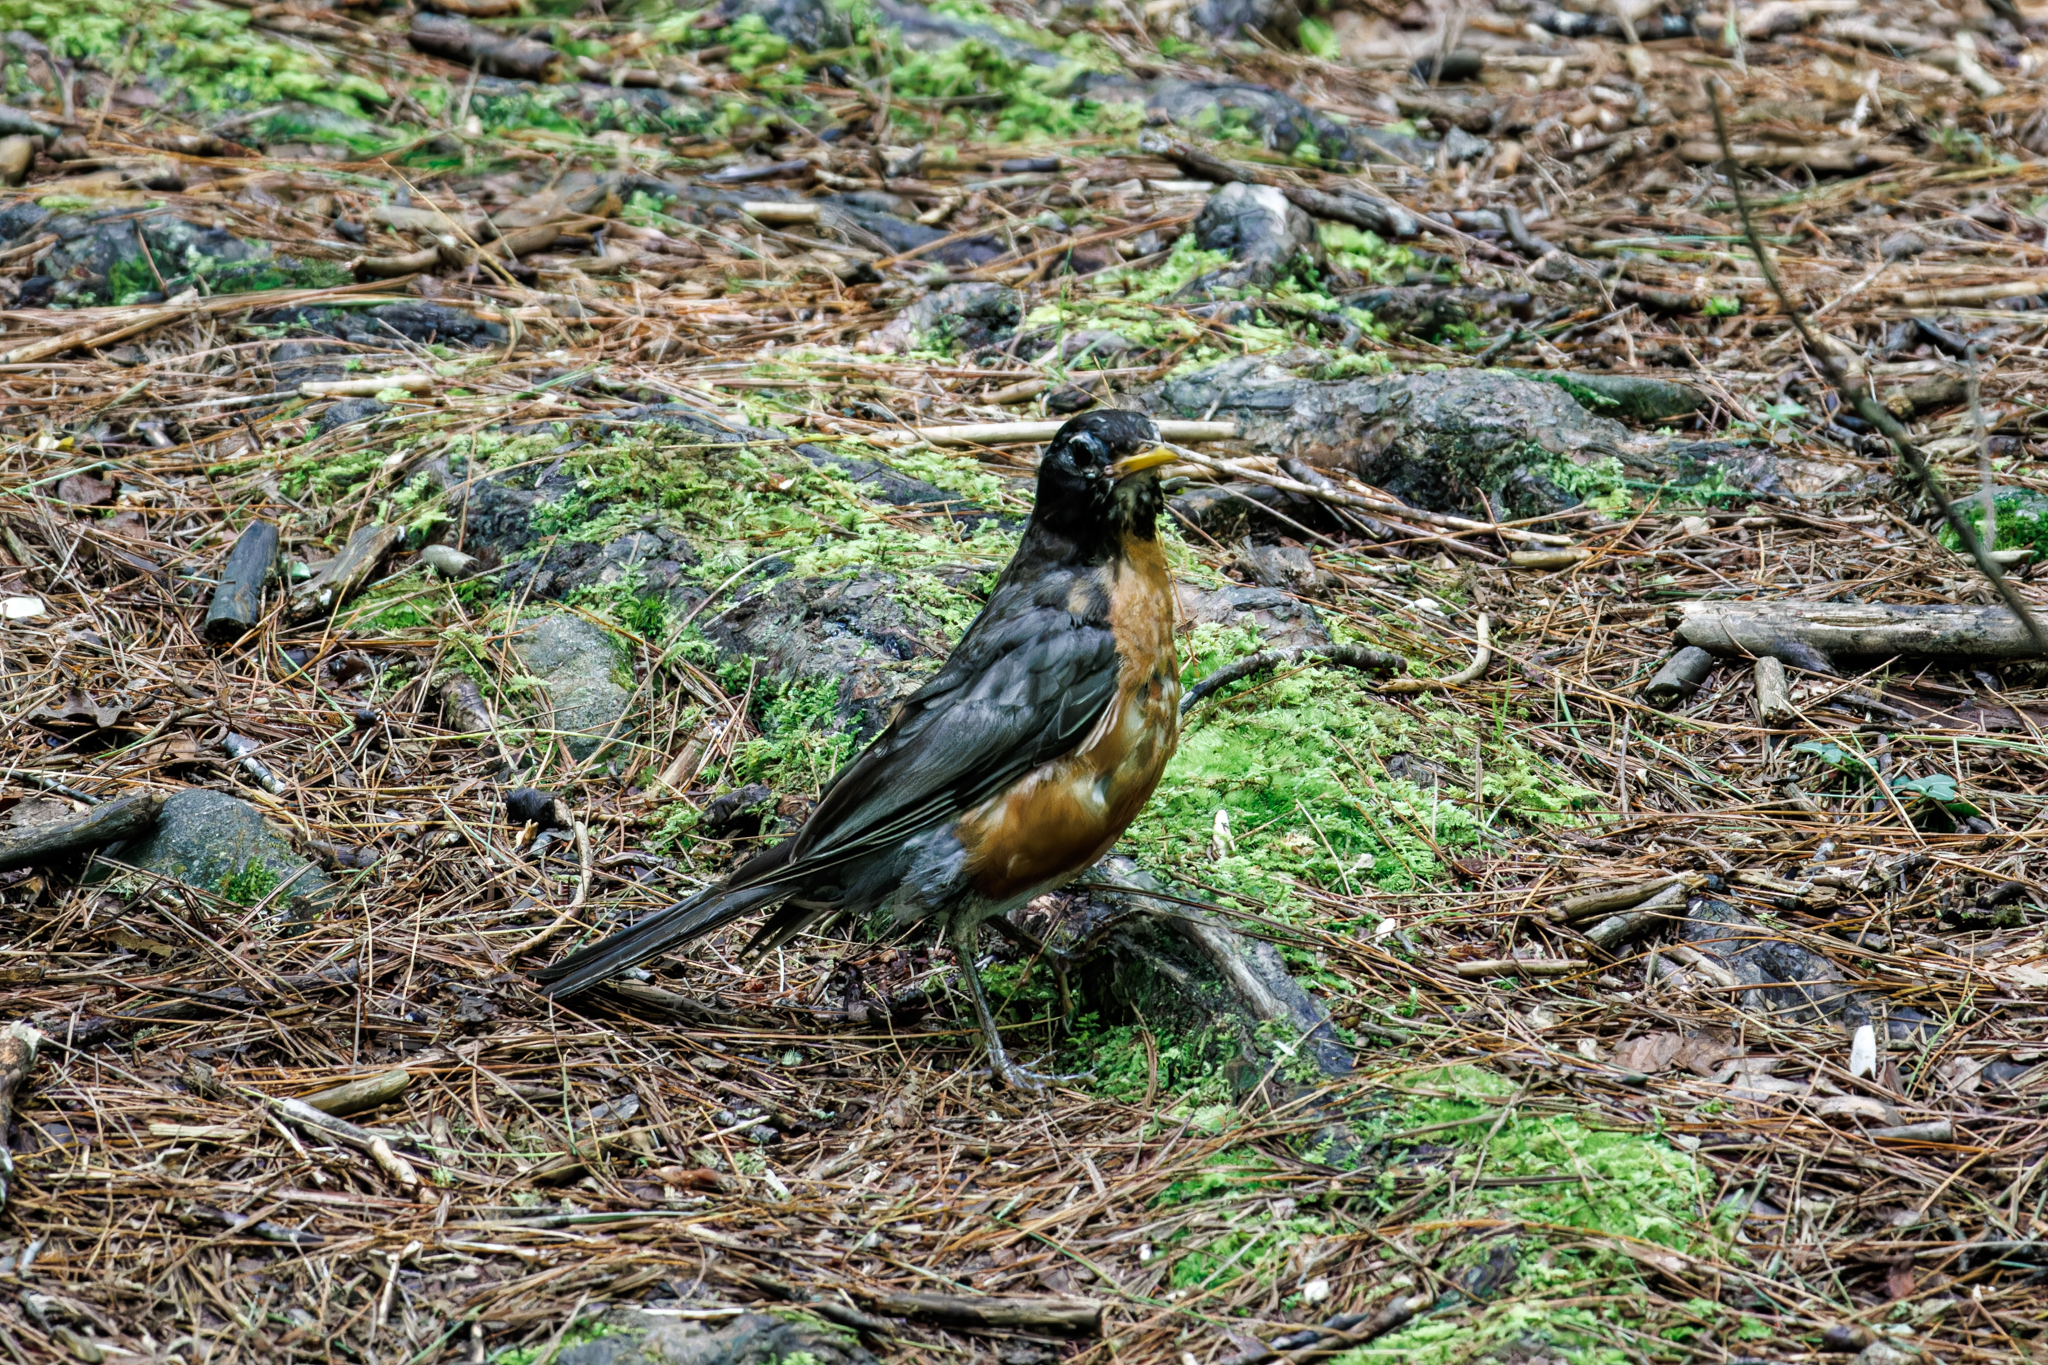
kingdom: Animalia
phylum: Chordata
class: Aves
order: Passeriformes
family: Turdidae
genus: Turdus
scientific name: Turdus migratorius
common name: American robin
